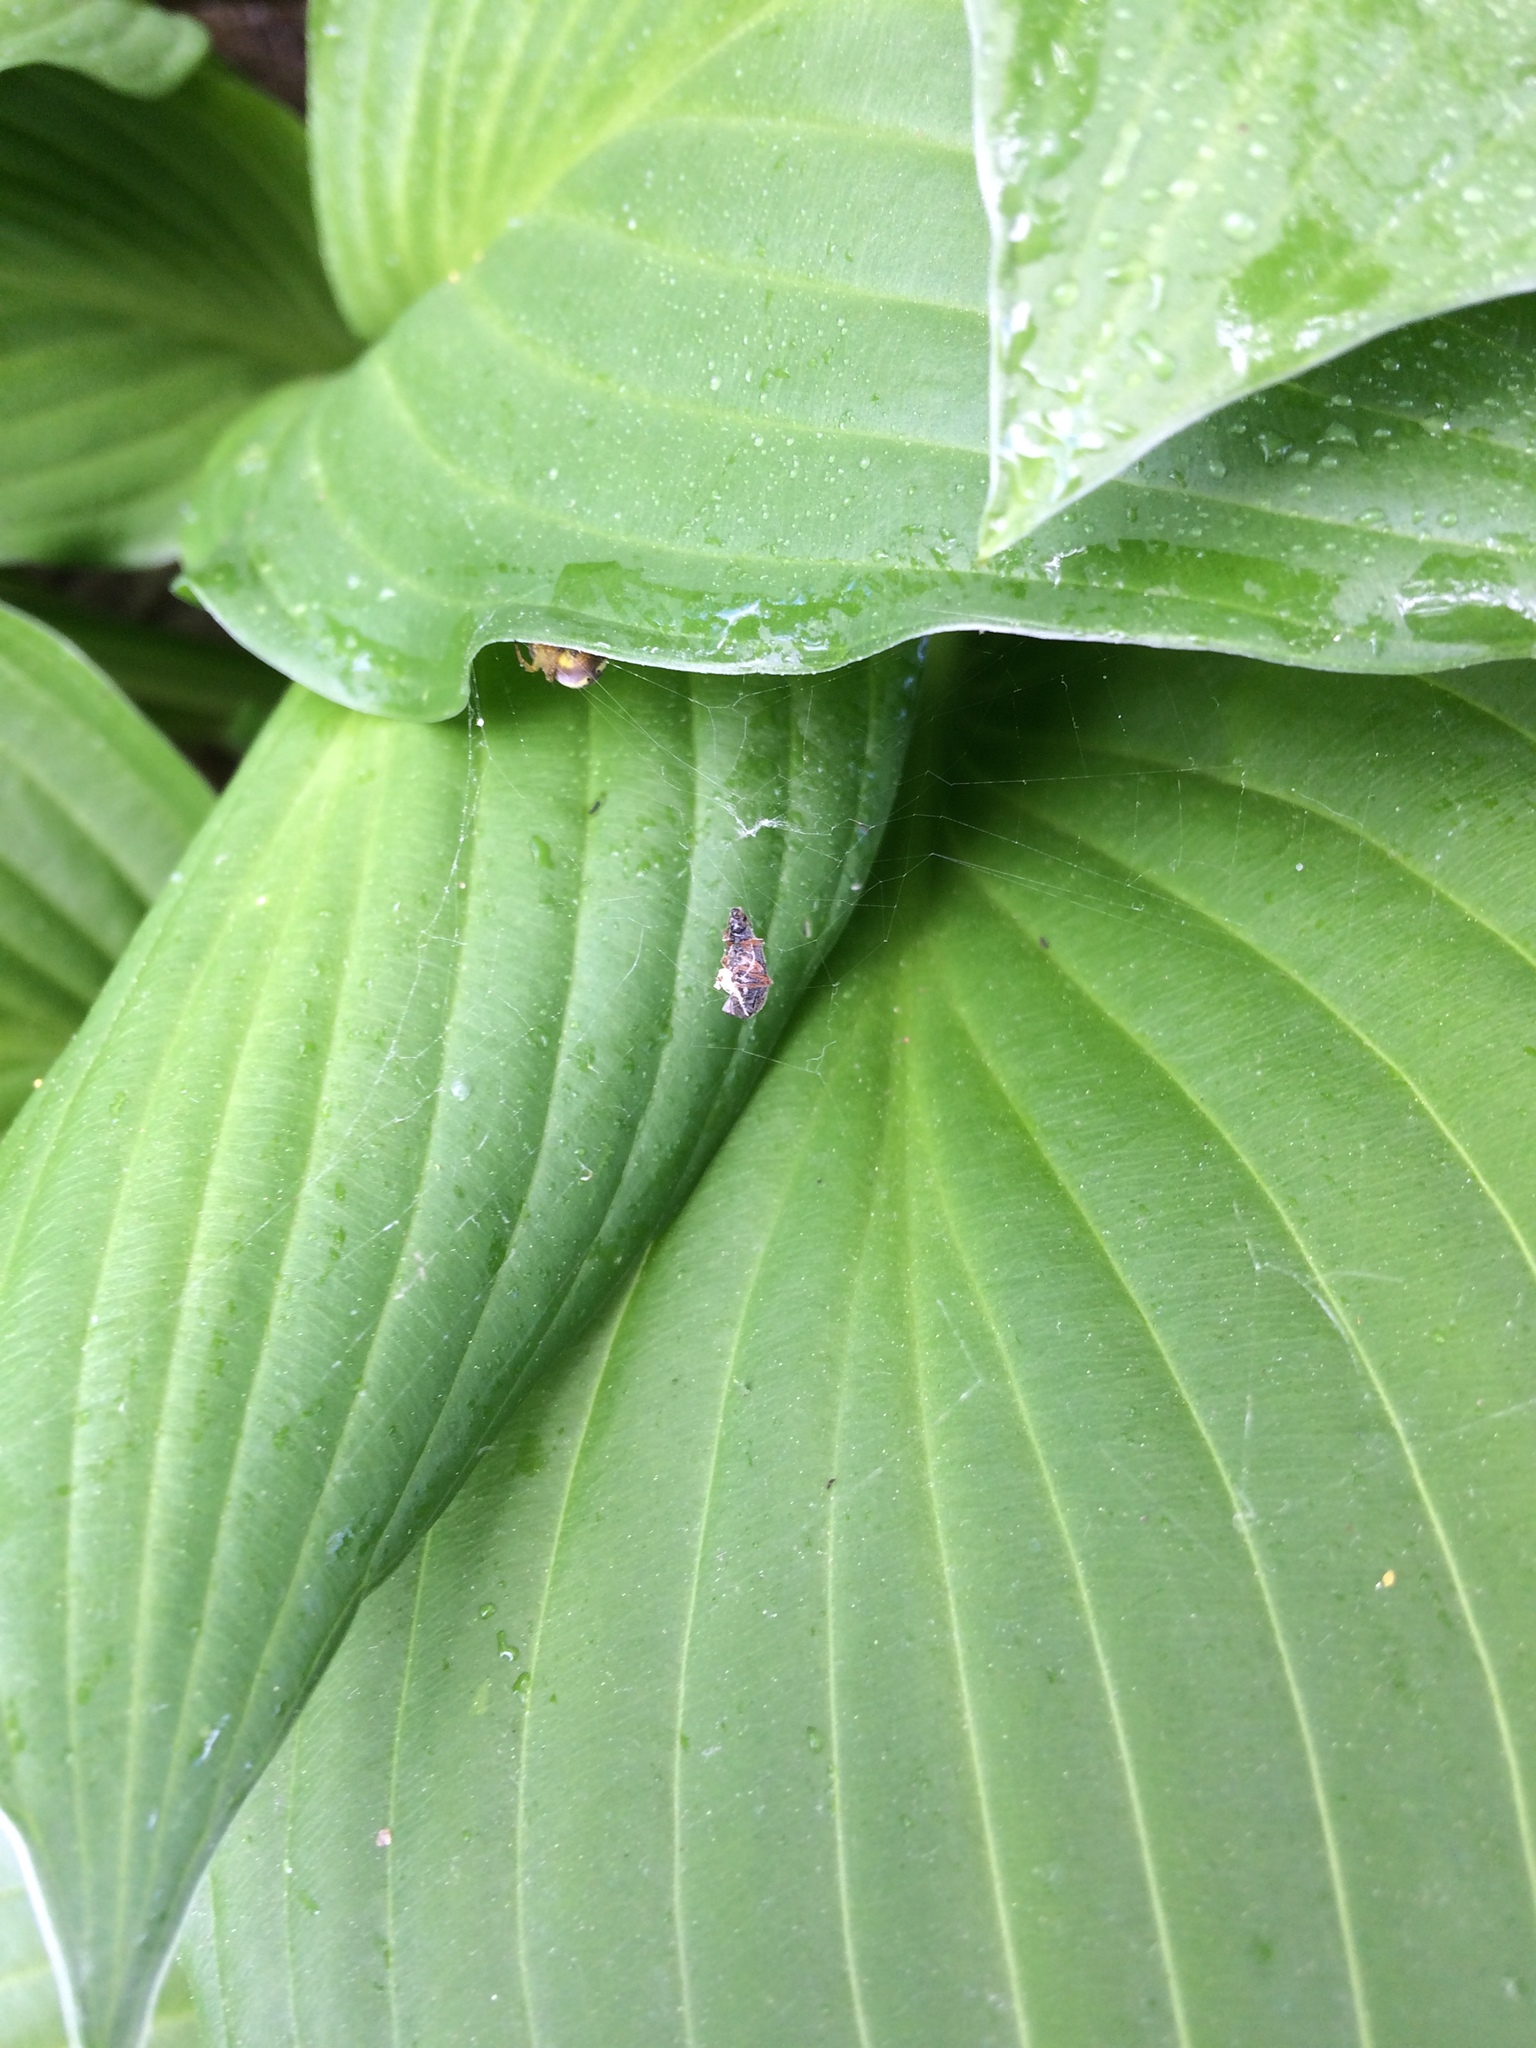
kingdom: Animalia
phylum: Arthropoda
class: Arachnida
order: Araneae
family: Araneidae
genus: Araniella
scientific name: Araniella displicata
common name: Sixspotted orb weaver
